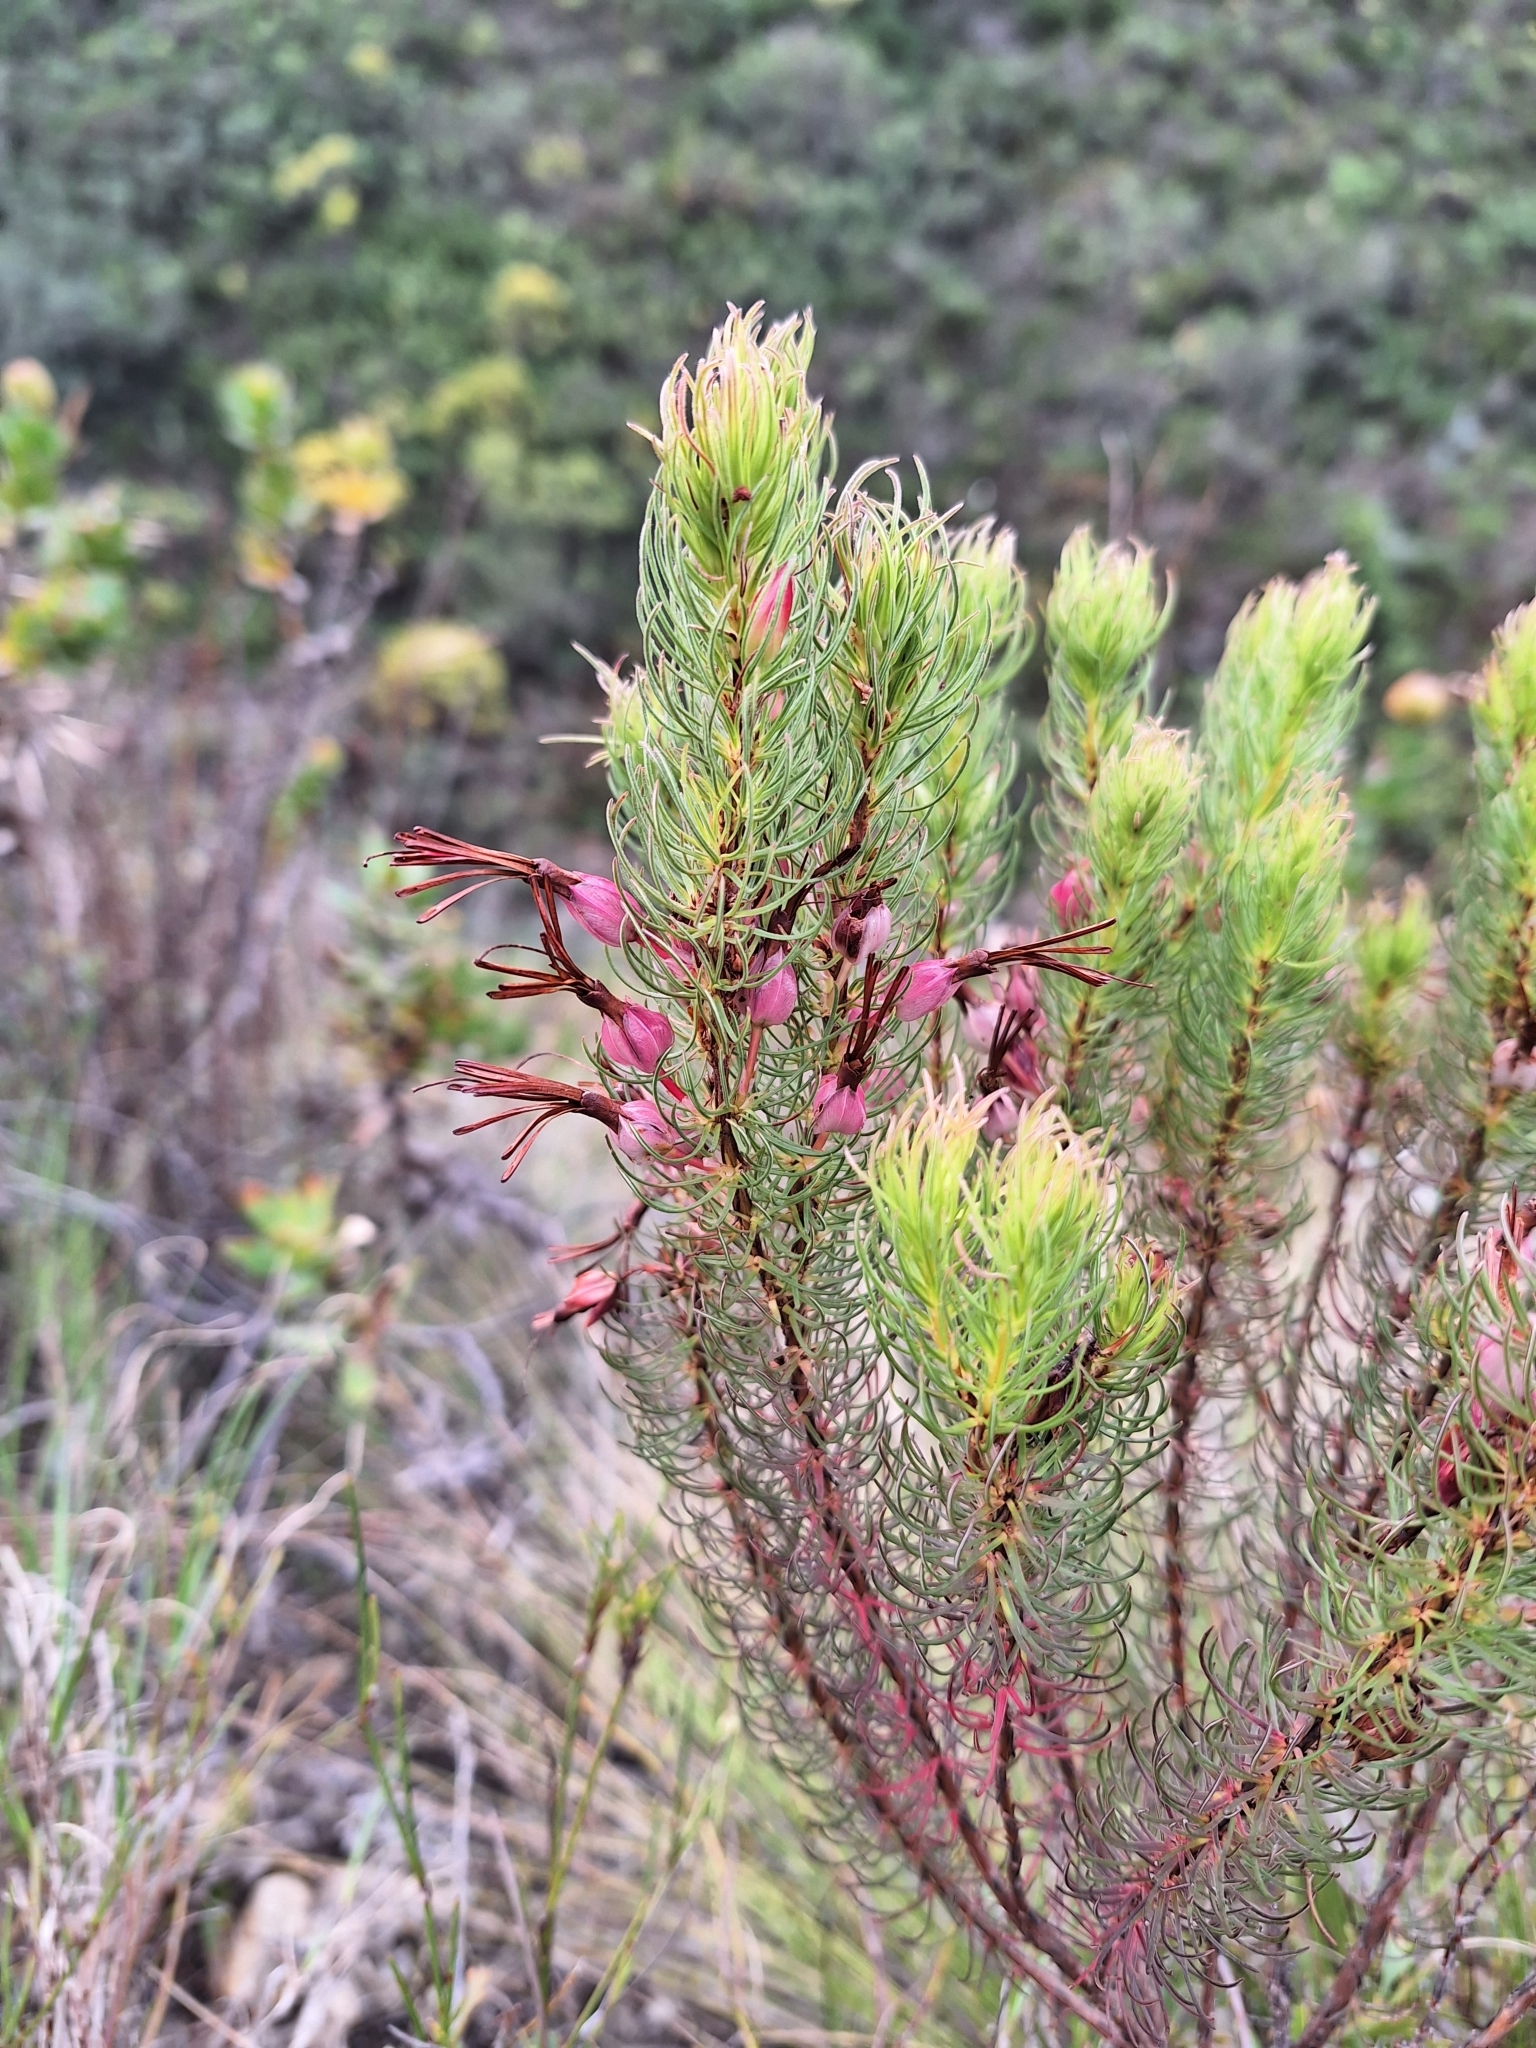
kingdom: Plantae
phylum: Tracheophyta
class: Magnoliopsida
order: Ericales
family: Ericaceae
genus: Erica
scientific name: Erica plukenetii
